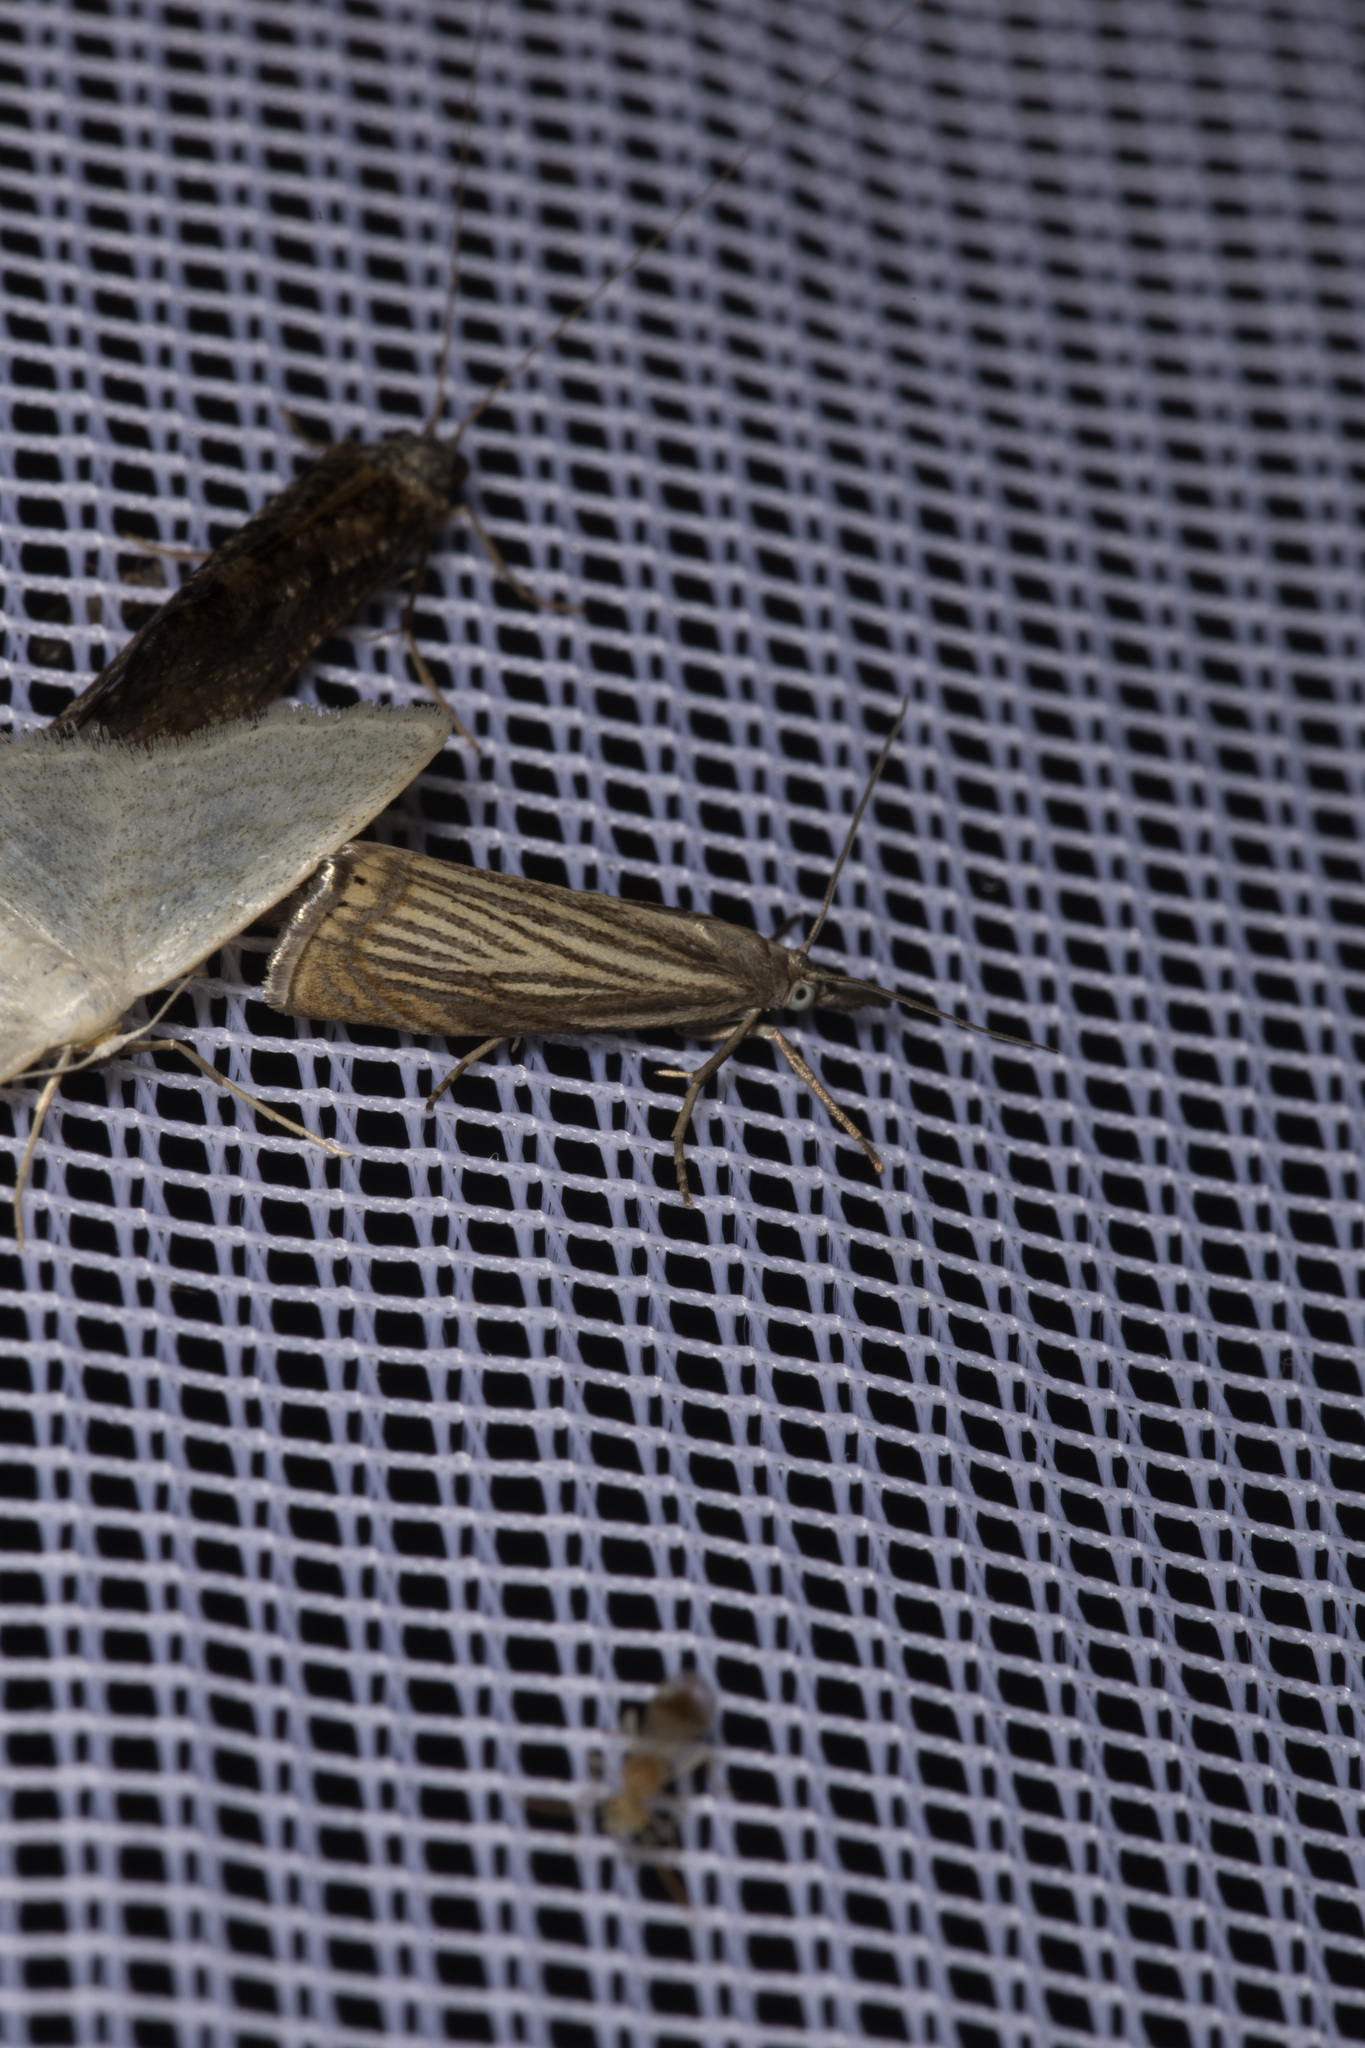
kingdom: Animalia
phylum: Arthropoda
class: Insecta
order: Lepidoptera
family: Crambidae
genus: Chrysoteuchia
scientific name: Chrysoteuchia culmella
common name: Garden grass-veneer
